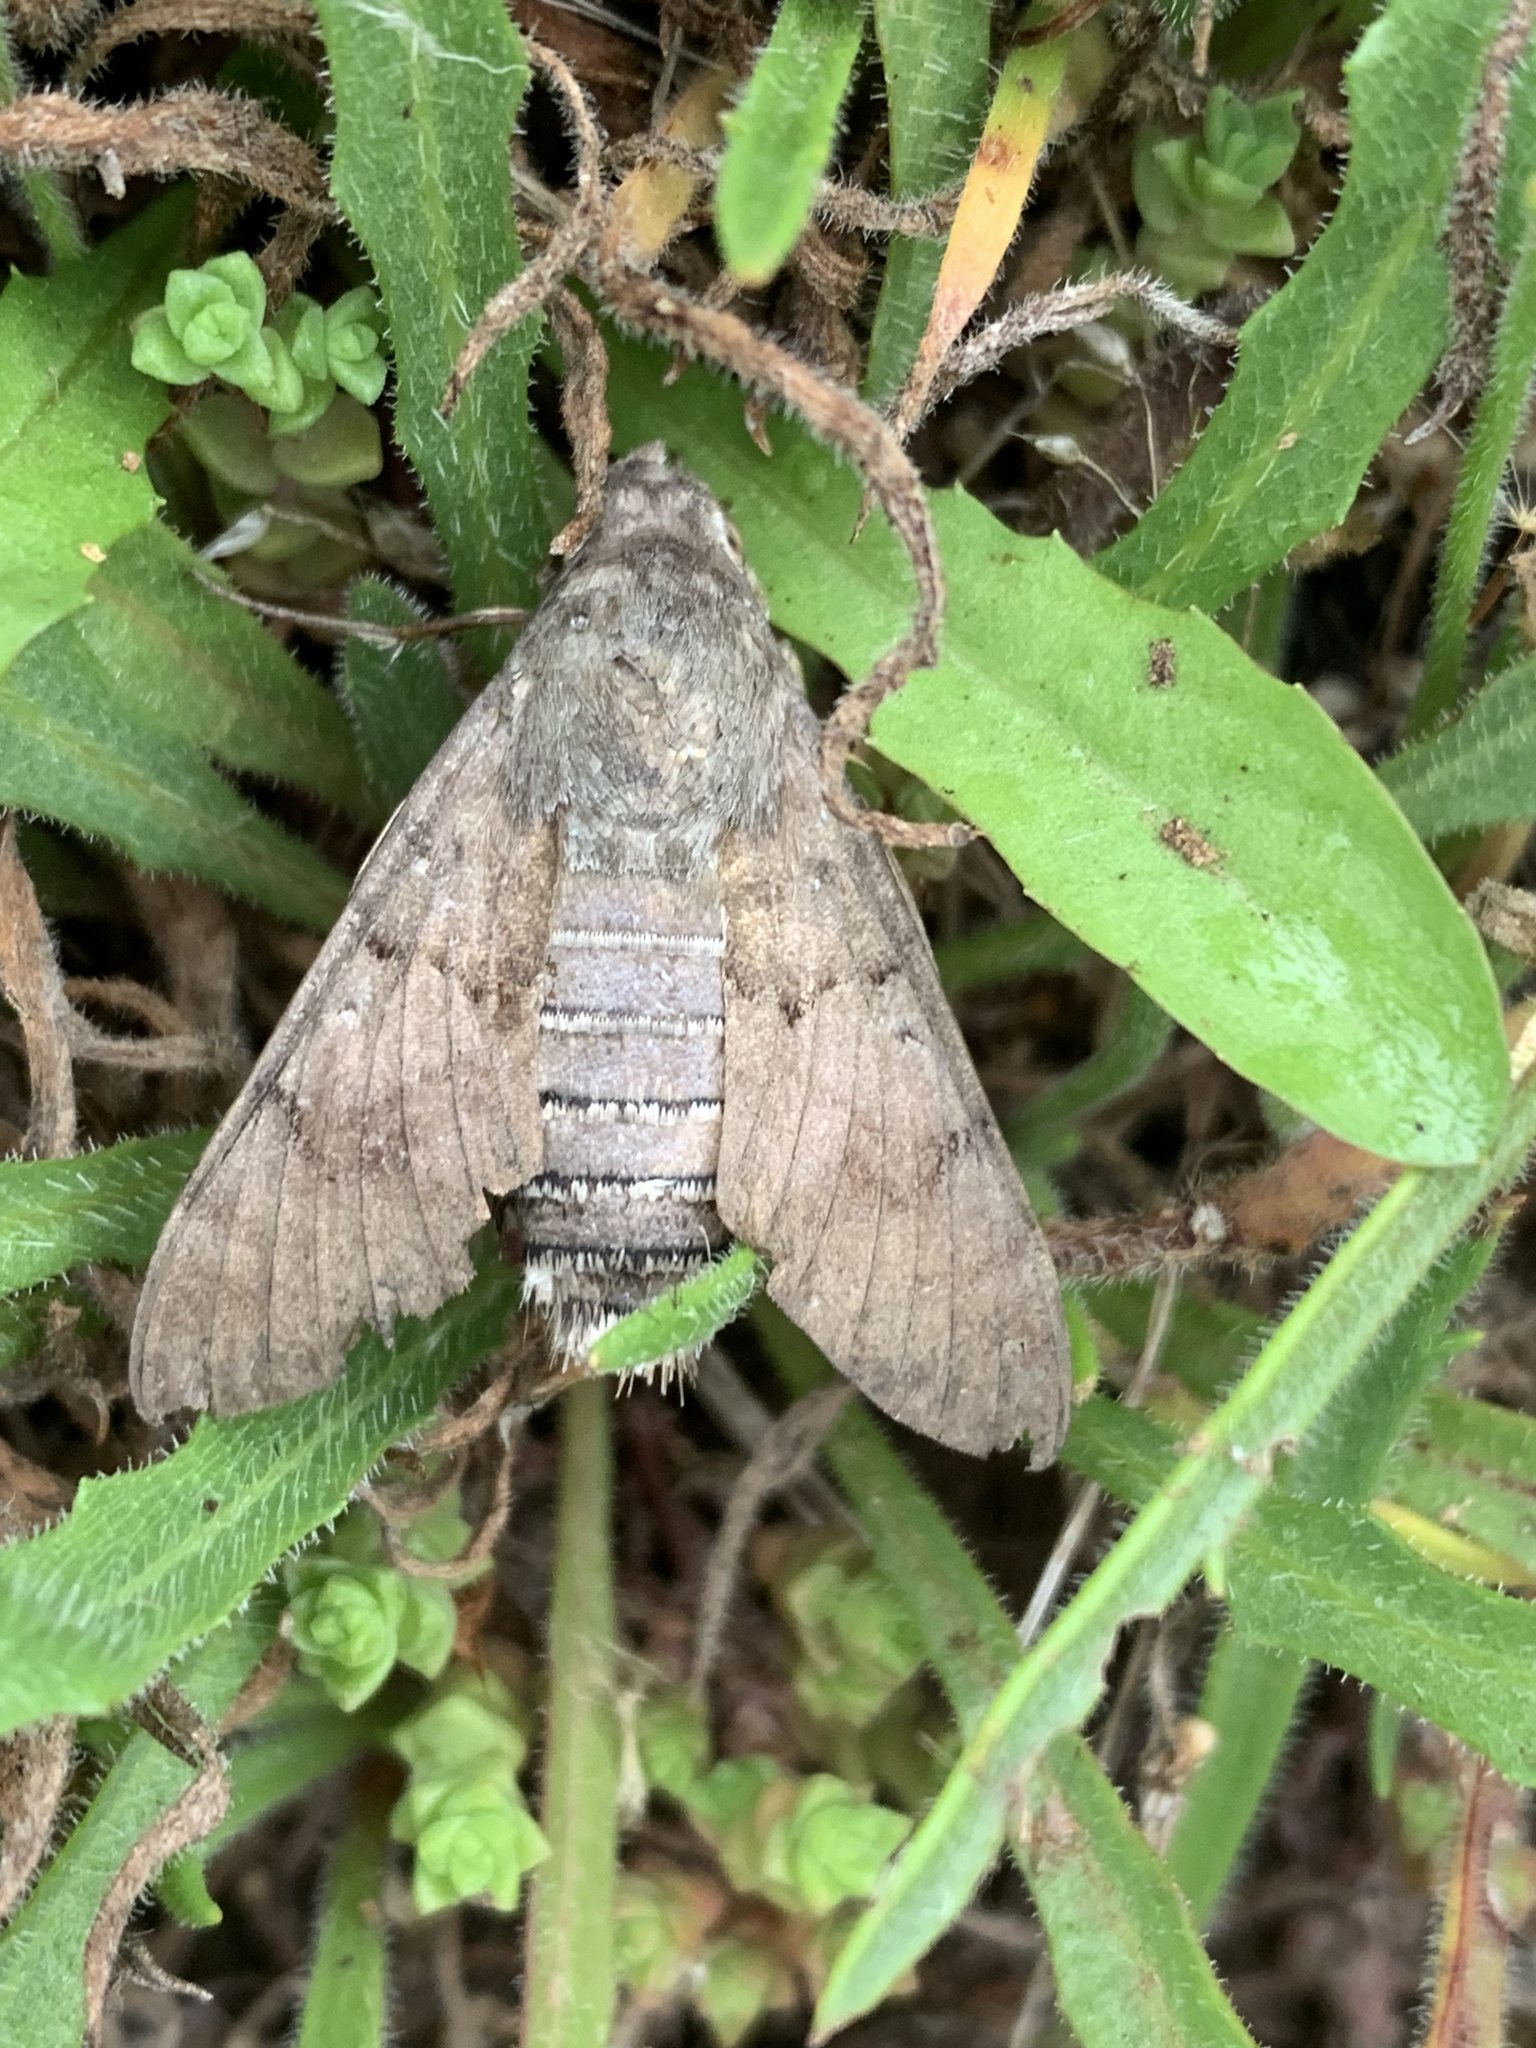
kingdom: Animalia
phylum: Arthropoda
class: Insecta
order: Lepidoptera
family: Sphingidae
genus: Macroglossum
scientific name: Macroglossum stellatarum
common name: Humming-bird hawk-moth
